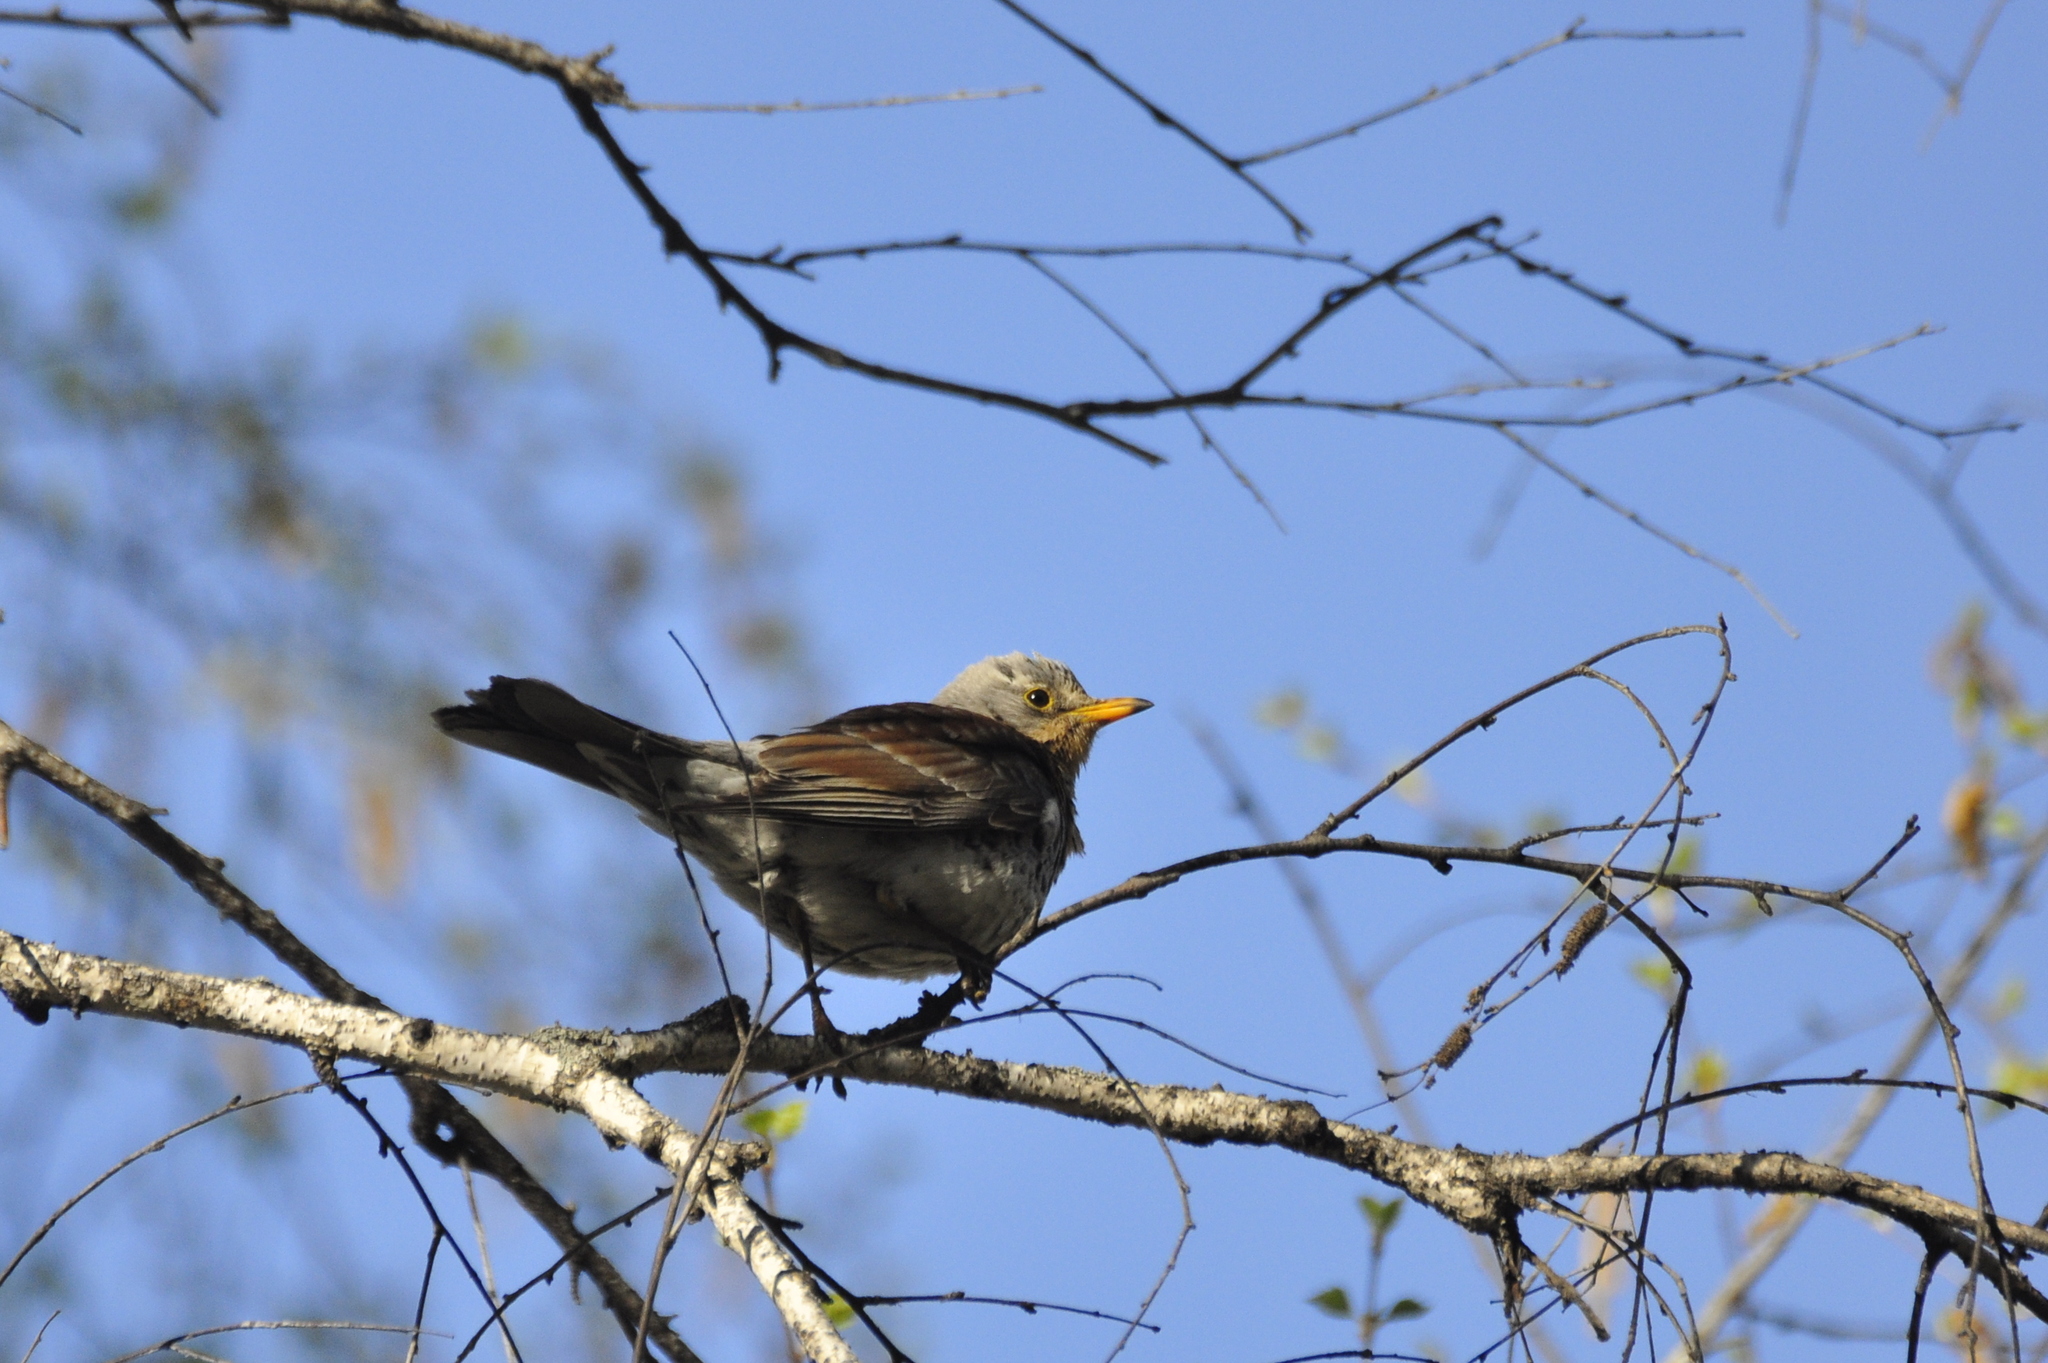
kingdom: Animalia
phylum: Chordata
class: Aves
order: Passeriformes
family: Turdidae
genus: Turdus
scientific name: Turdus pilaris
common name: Fieldfare
